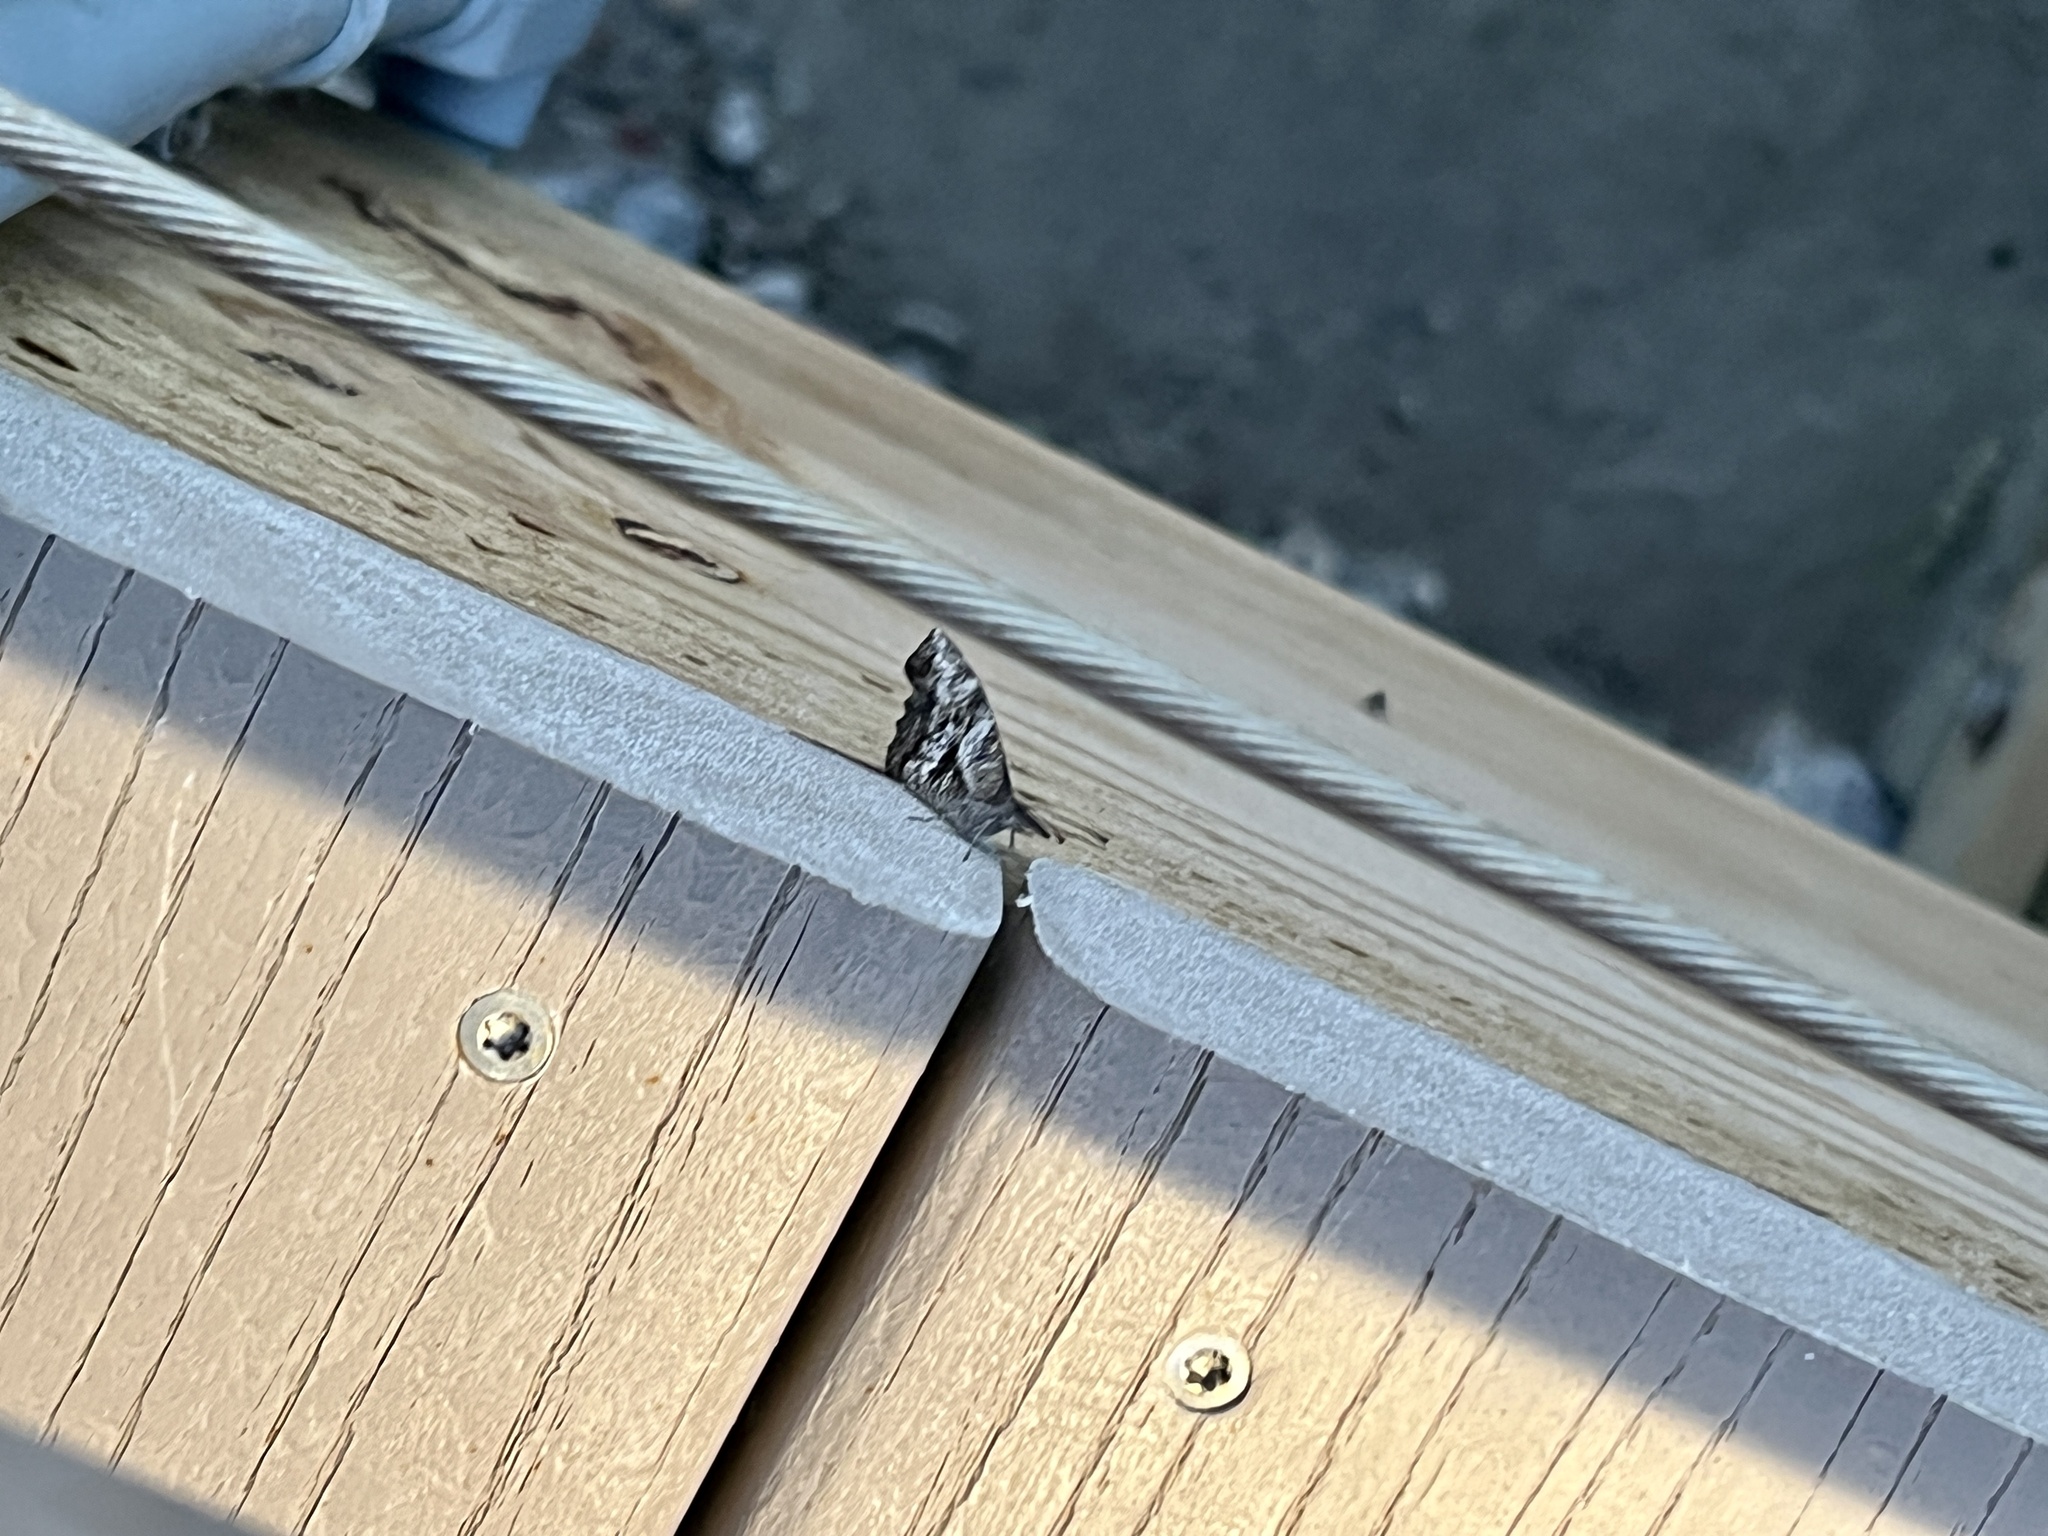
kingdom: Animalia
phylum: Arthropoda
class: Insecta
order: Lepidoptera
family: Nymphalidae
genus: Libytheana
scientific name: Libytheana carinenta
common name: American snout
